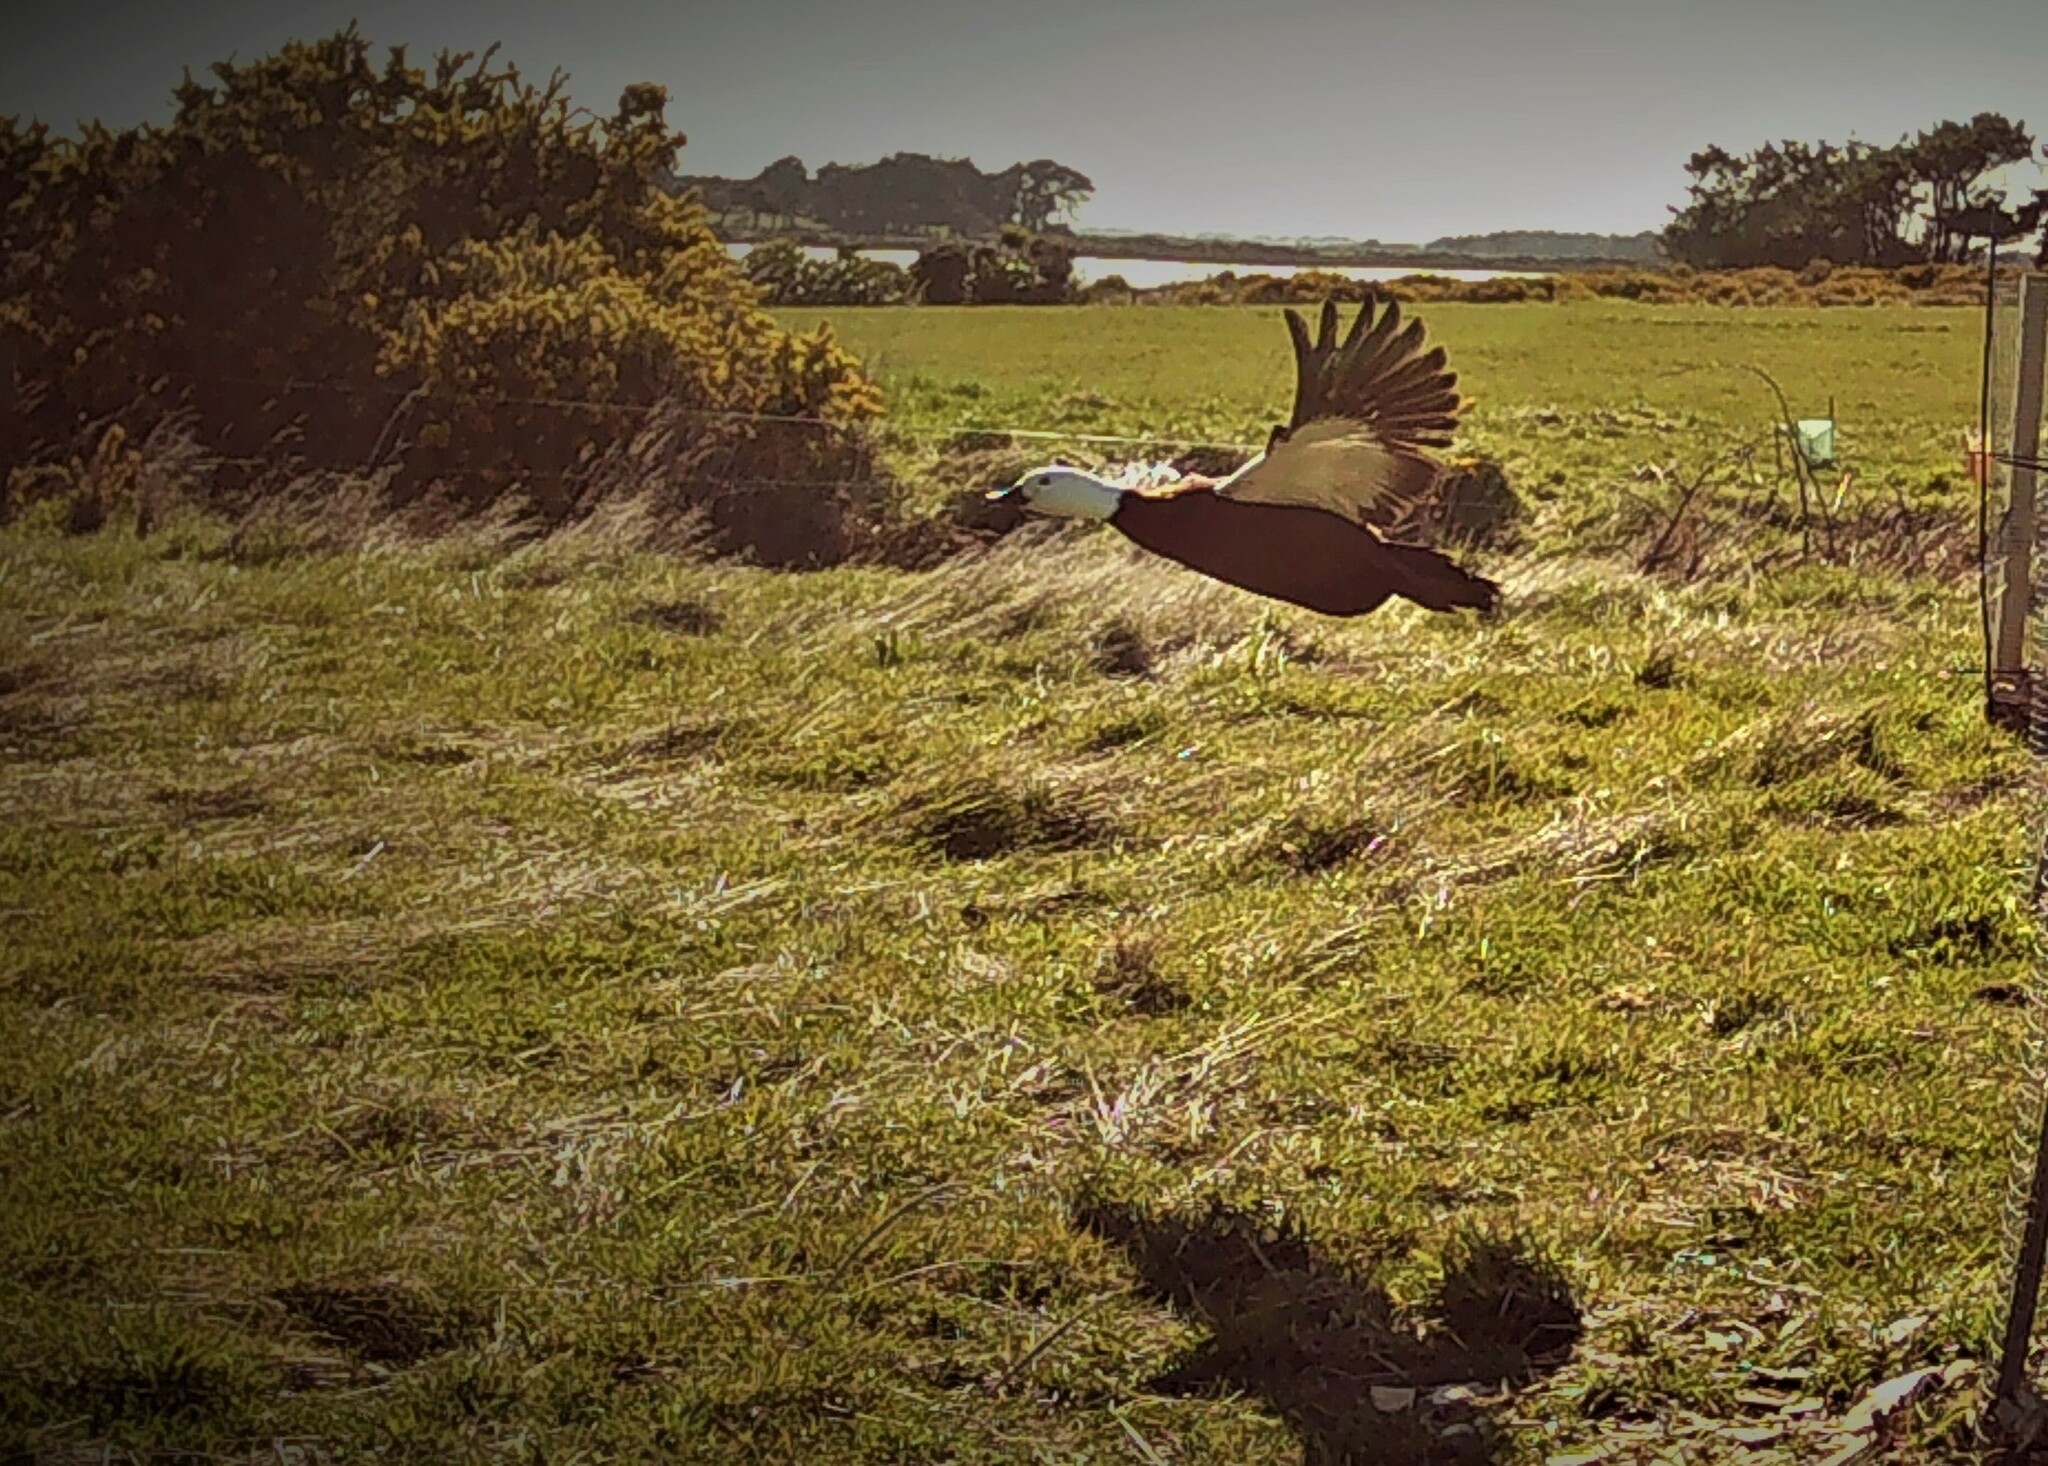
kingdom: Animalia
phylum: Chordata
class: Aves
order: Anseriformes
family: Anatidae
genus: Tadorna
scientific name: Tadorna variegata
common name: Paradise shelduck
